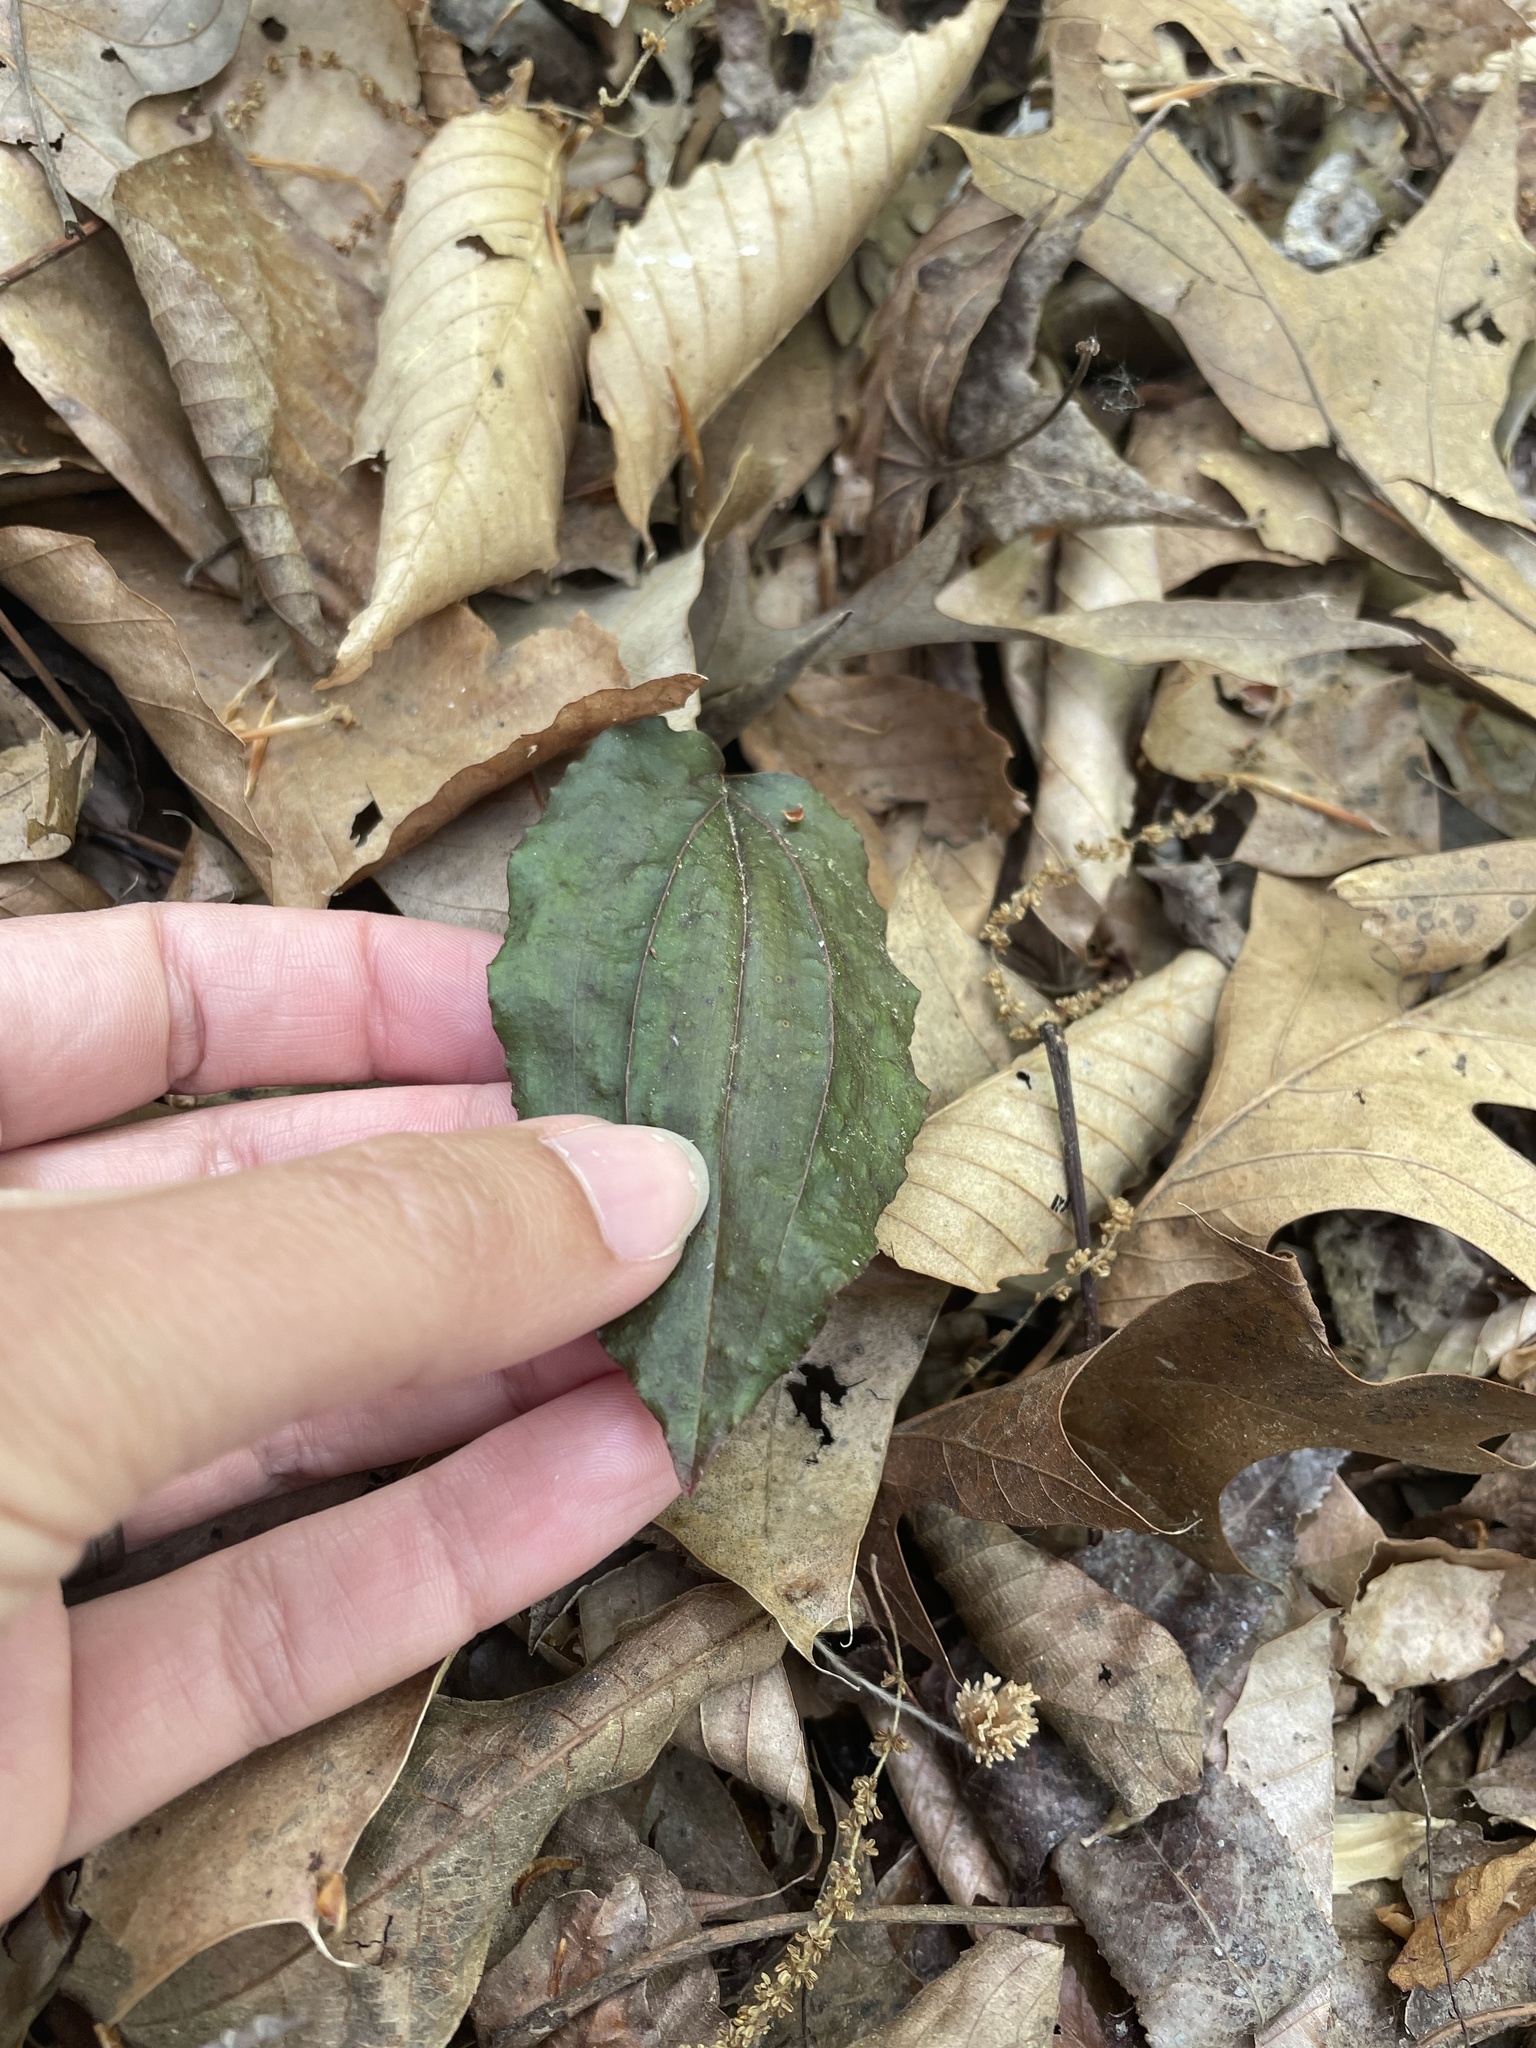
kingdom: Plantae
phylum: Tracheophyta
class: Liliopsida
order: Asparagales
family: Orchidaceae
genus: Tipularia
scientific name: Tipularia discolor
